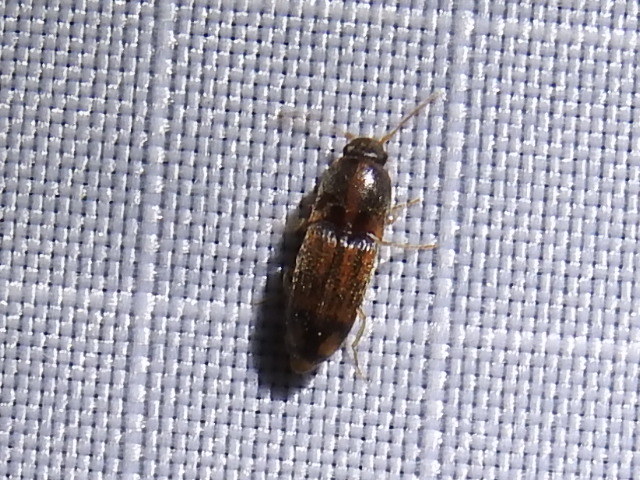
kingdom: Animalia
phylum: Arthropoda
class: Insecta
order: Coleoptera
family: Elateridae
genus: Monocrepidius
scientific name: Monocrepidius bellus
